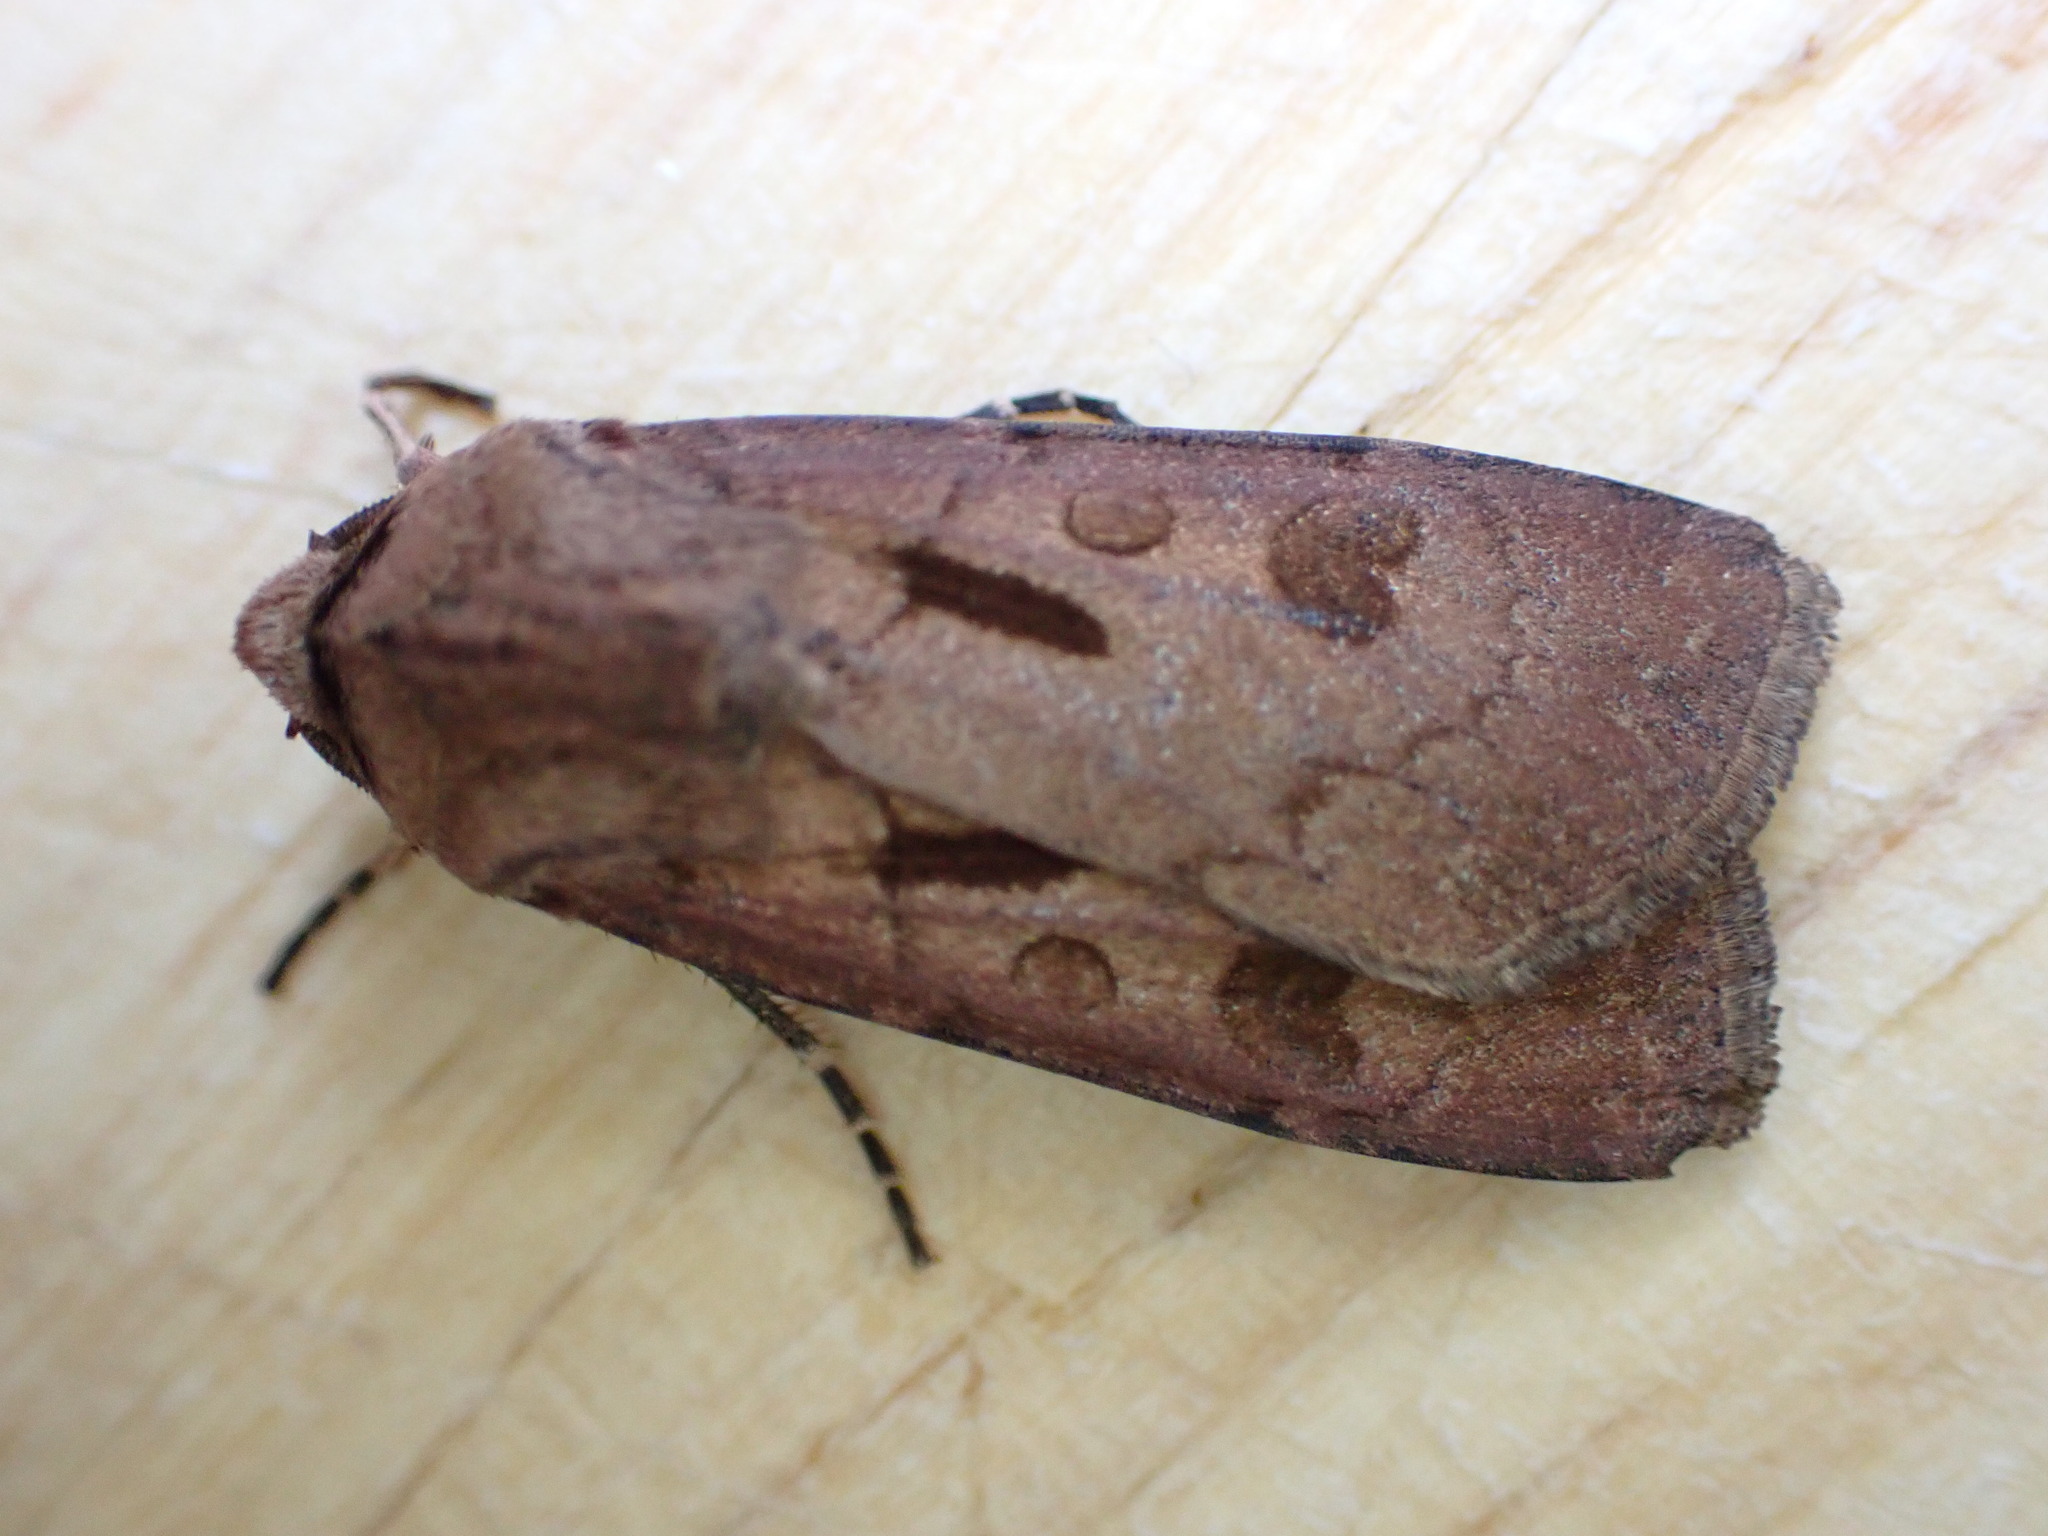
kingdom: Animalia
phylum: Arthropoda
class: Insecta
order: Lepidoptera
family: Noctuidae
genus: Agrotis
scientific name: Agrotis exclamationis
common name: Heart and dart
